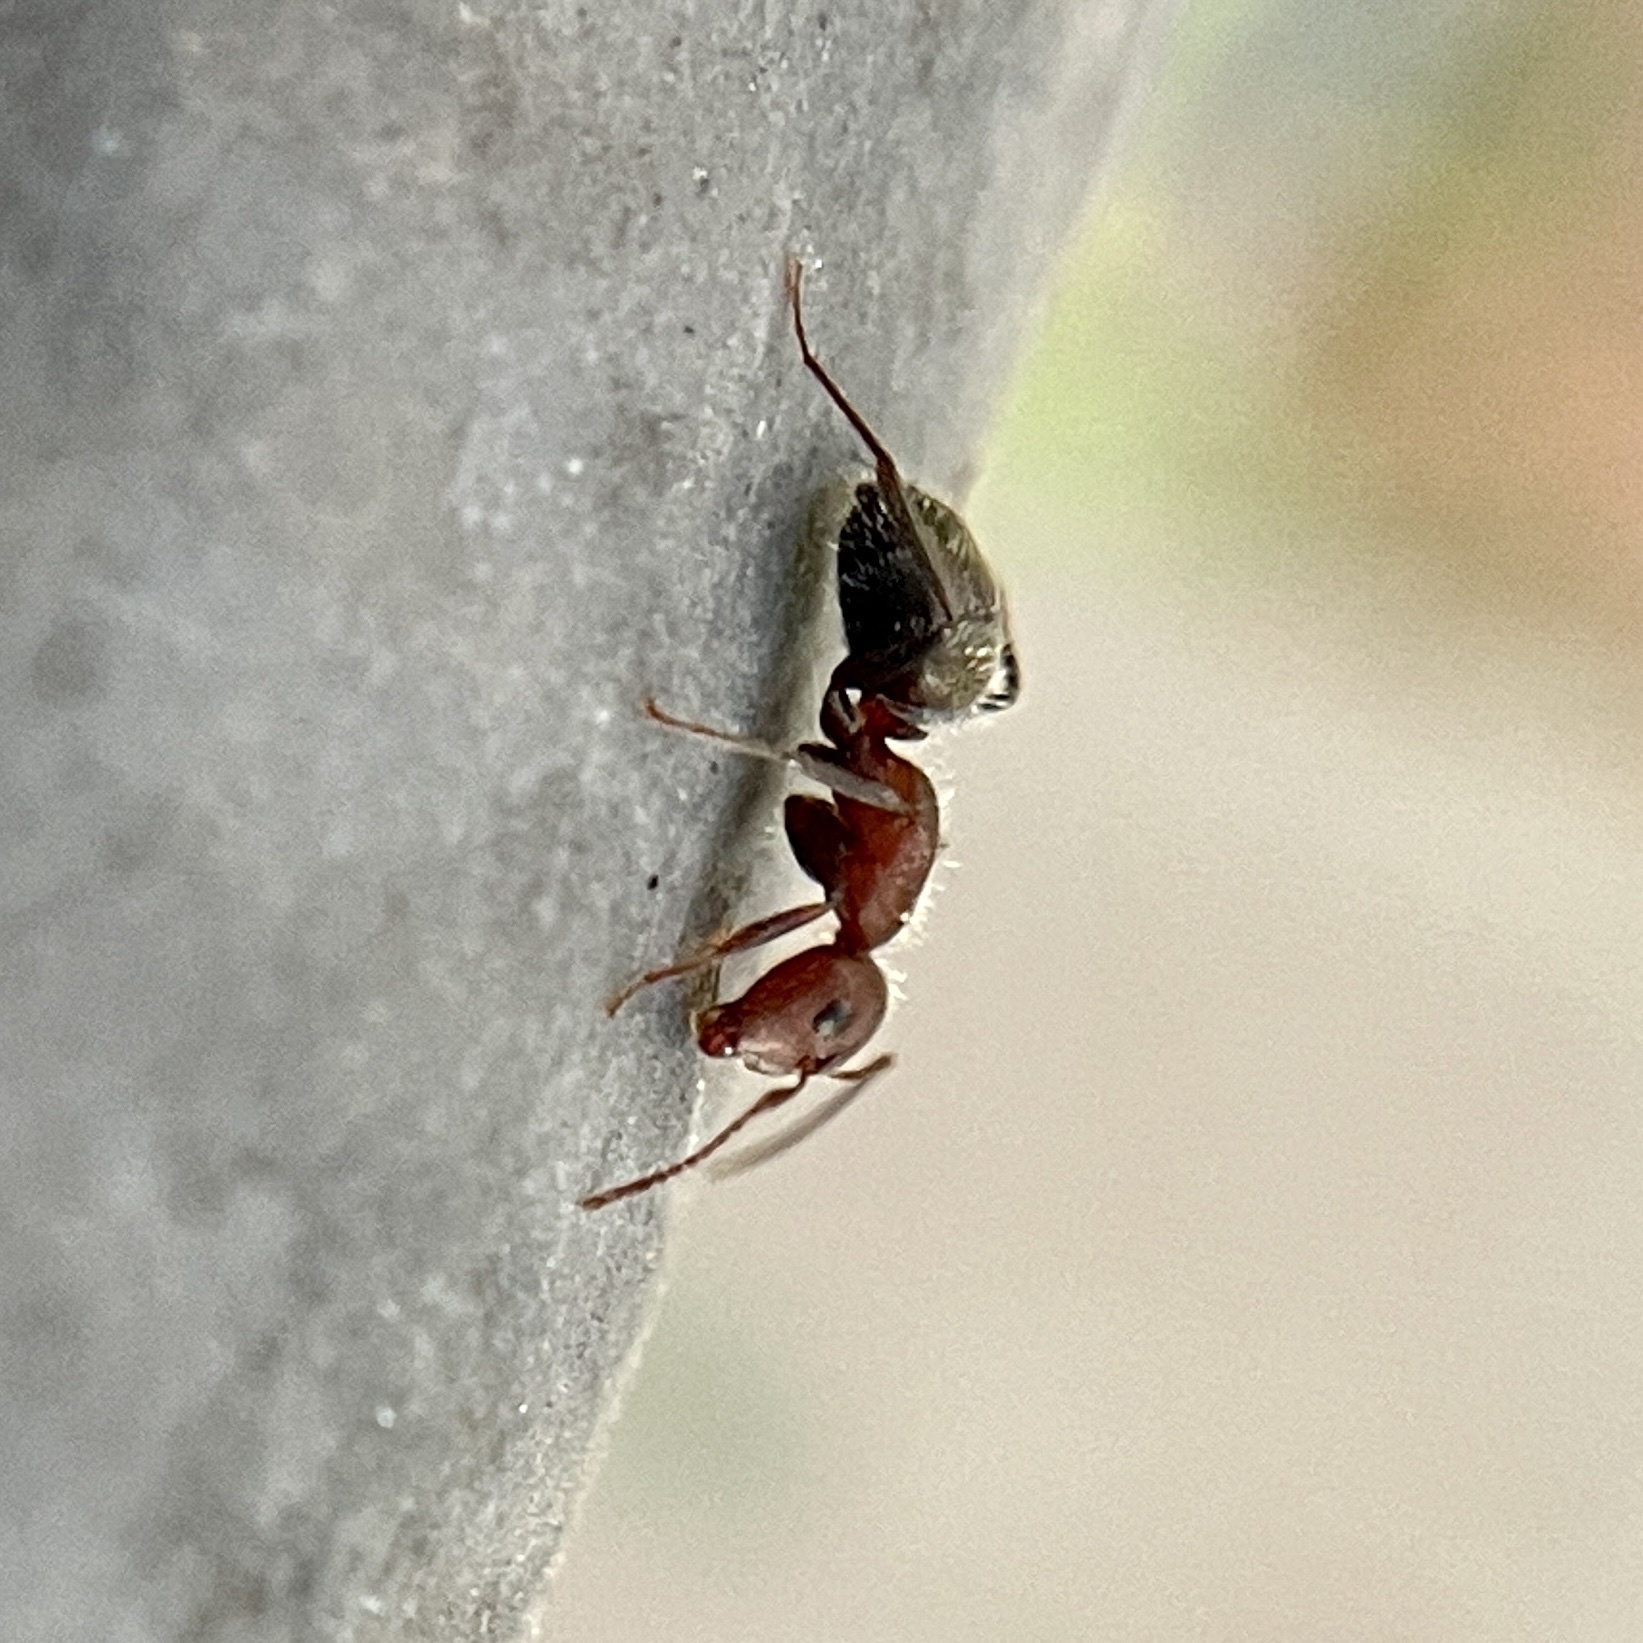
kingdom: Animalia
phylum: Arthropoda
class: Insecta
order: Hymenoptera
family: Formicidae
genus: Camponotus
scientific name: Camponotus planatus
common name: Compact carpenter ant
